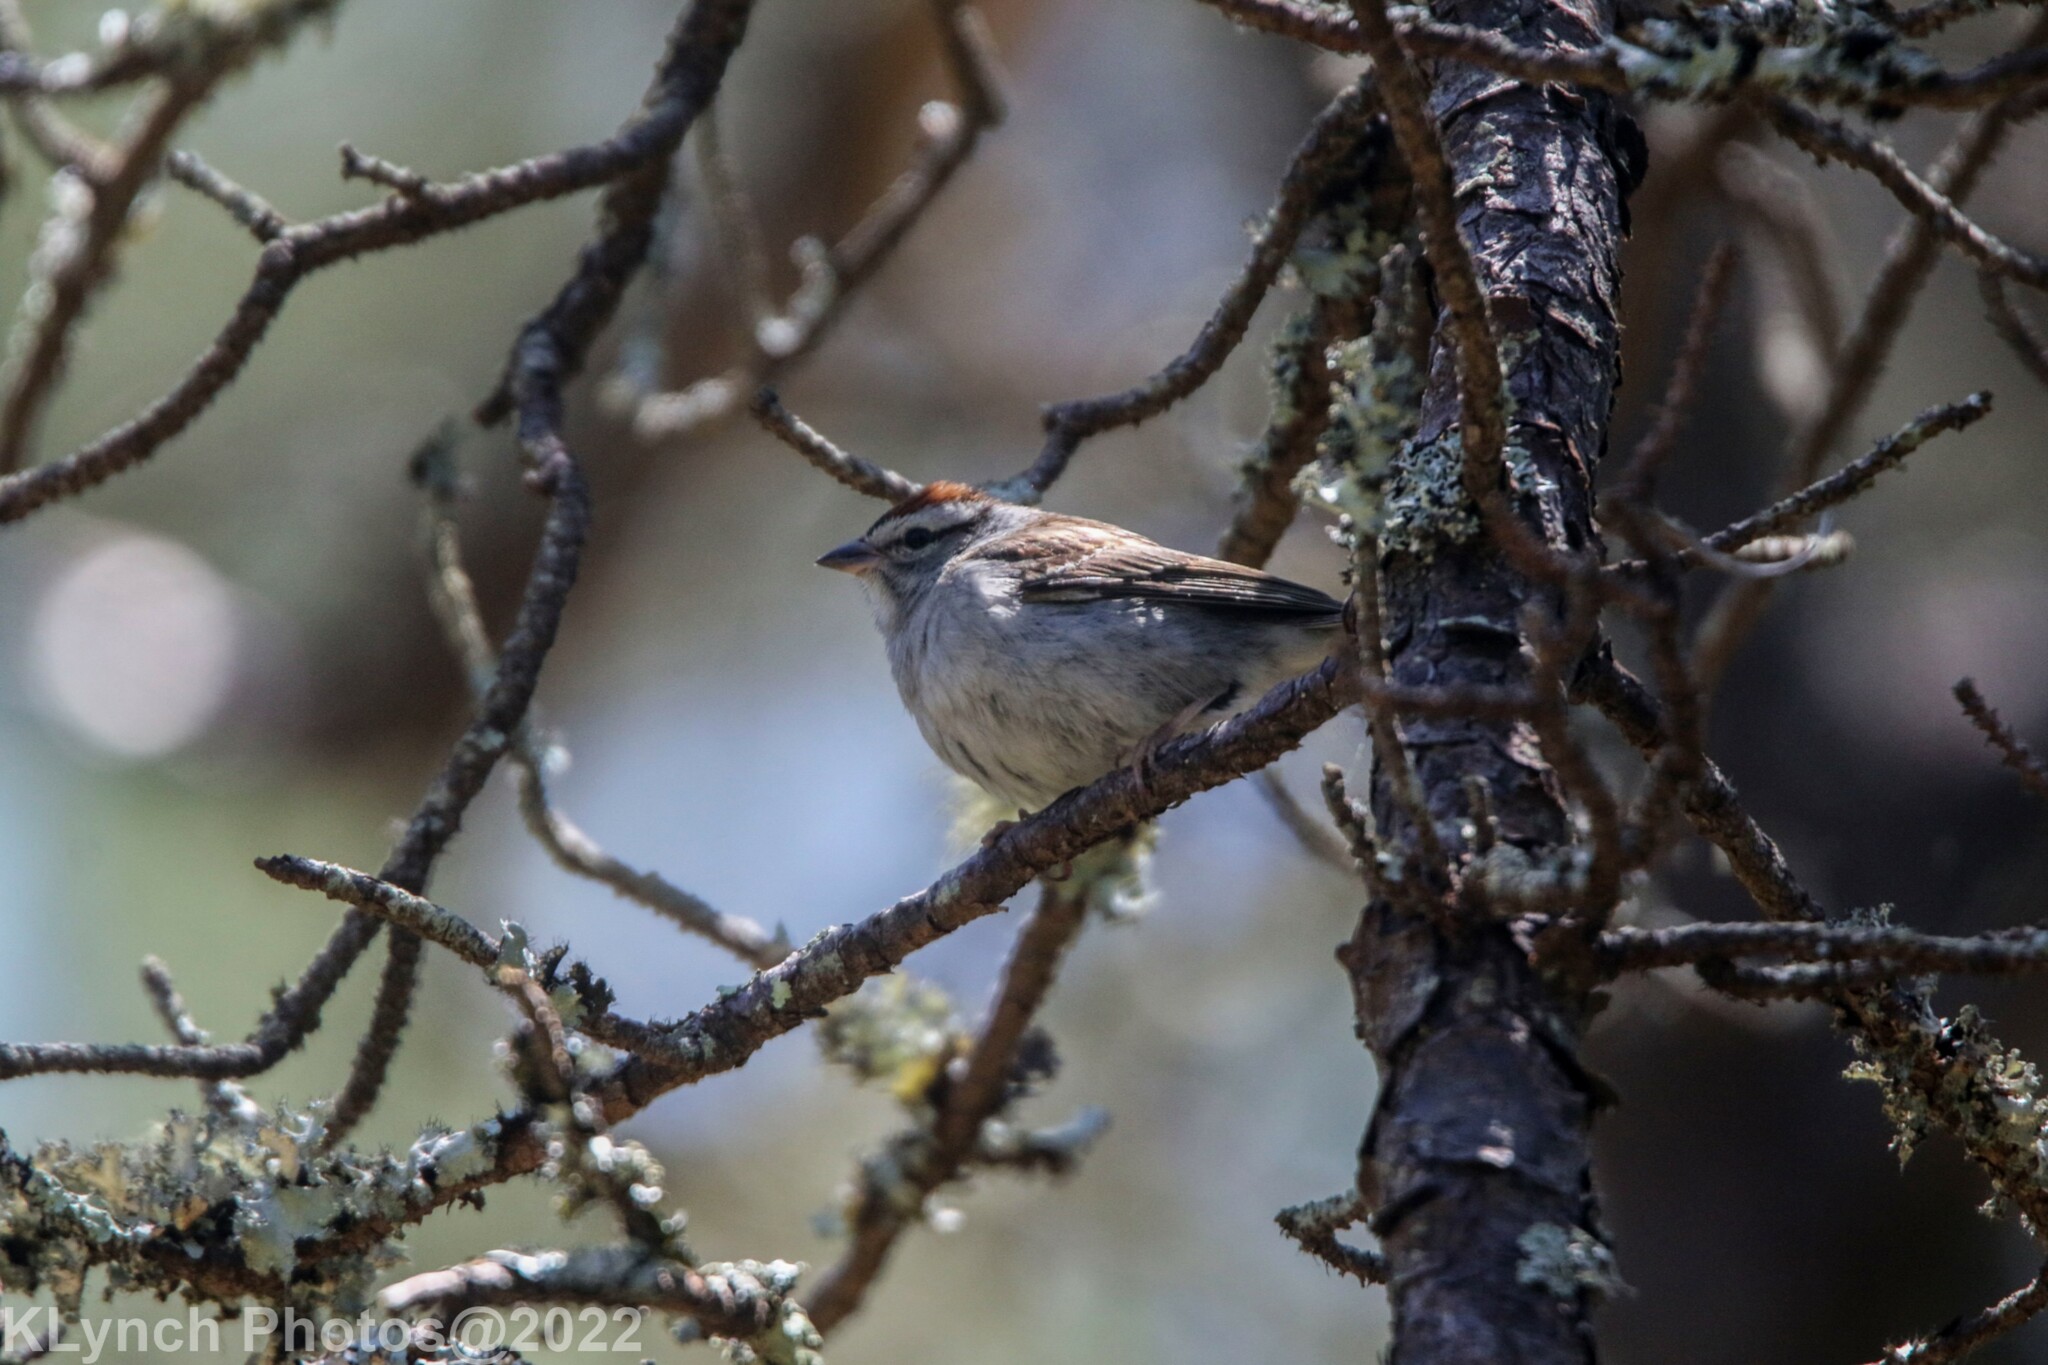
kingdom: Animalia
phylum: Chordata
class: Aves
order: Passeriformes
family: Passerellidae
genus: Spizella
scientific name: Spizella passerina
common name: Chipping sparrow
